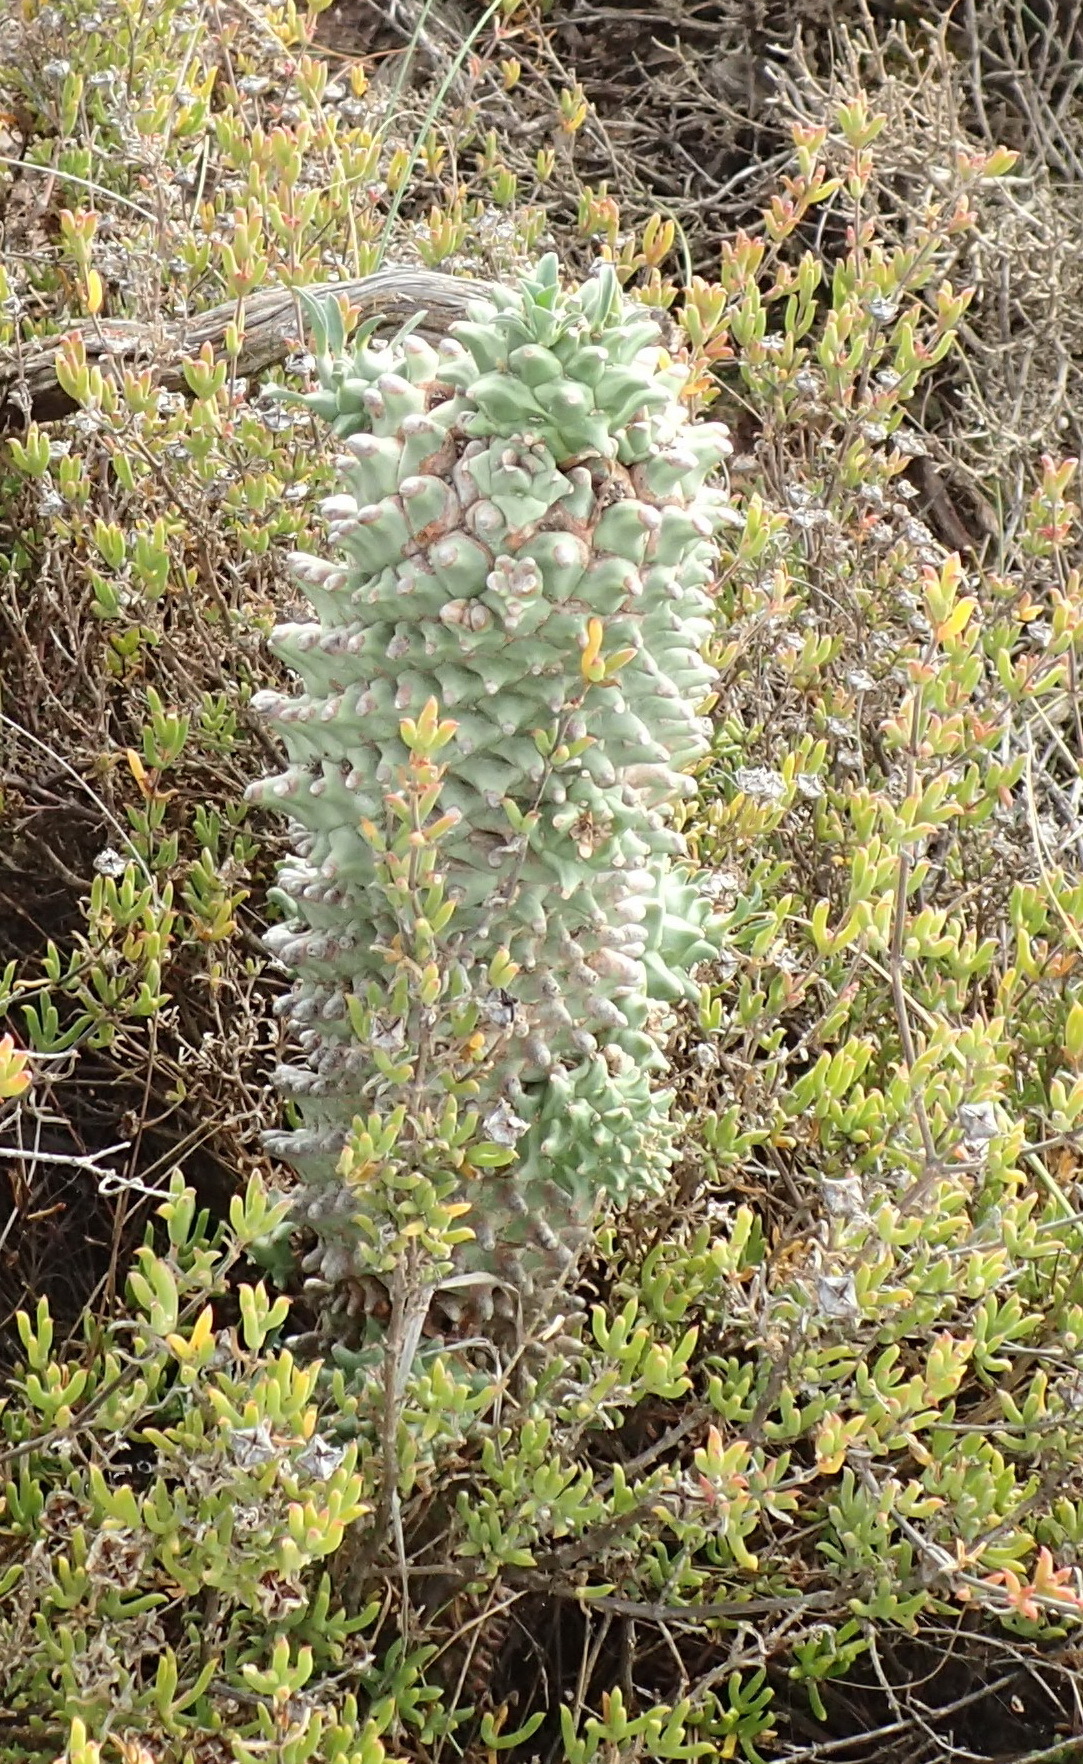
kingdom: Plantae
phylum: Tracheophyta
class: Magnoliopsida
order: Malpighiales
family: Euphorbiaceae
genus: Euphorbia
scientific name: Euphorbia clandestina
